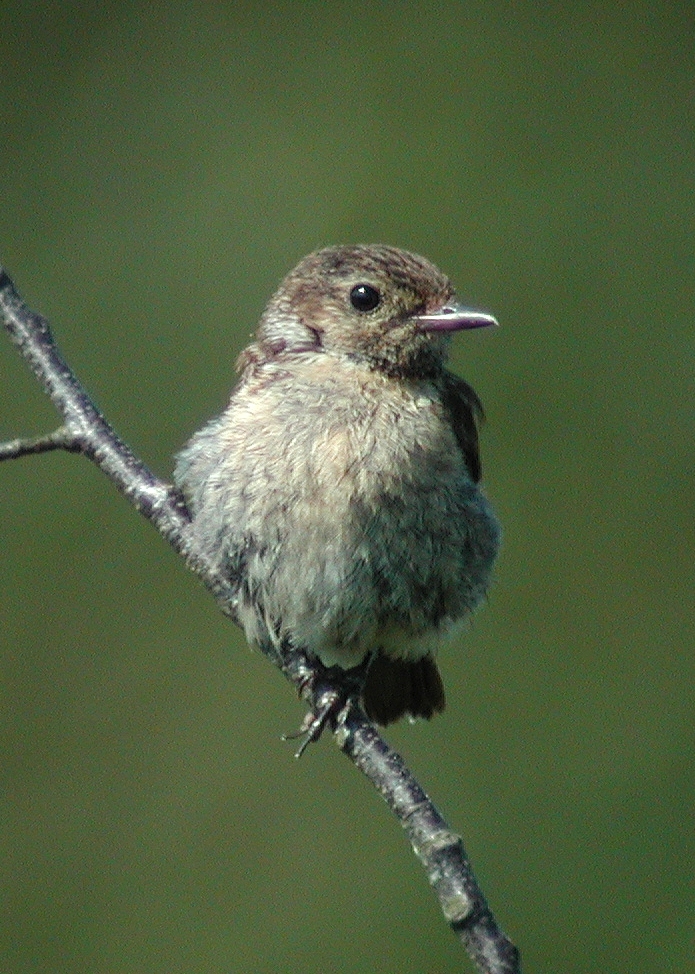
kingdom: Animalia
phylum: Chordata
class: Aves
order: Passeriformes
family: Muscicapidae
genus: Saxicola
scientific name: Saxicola rubicola
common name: European stonechat
